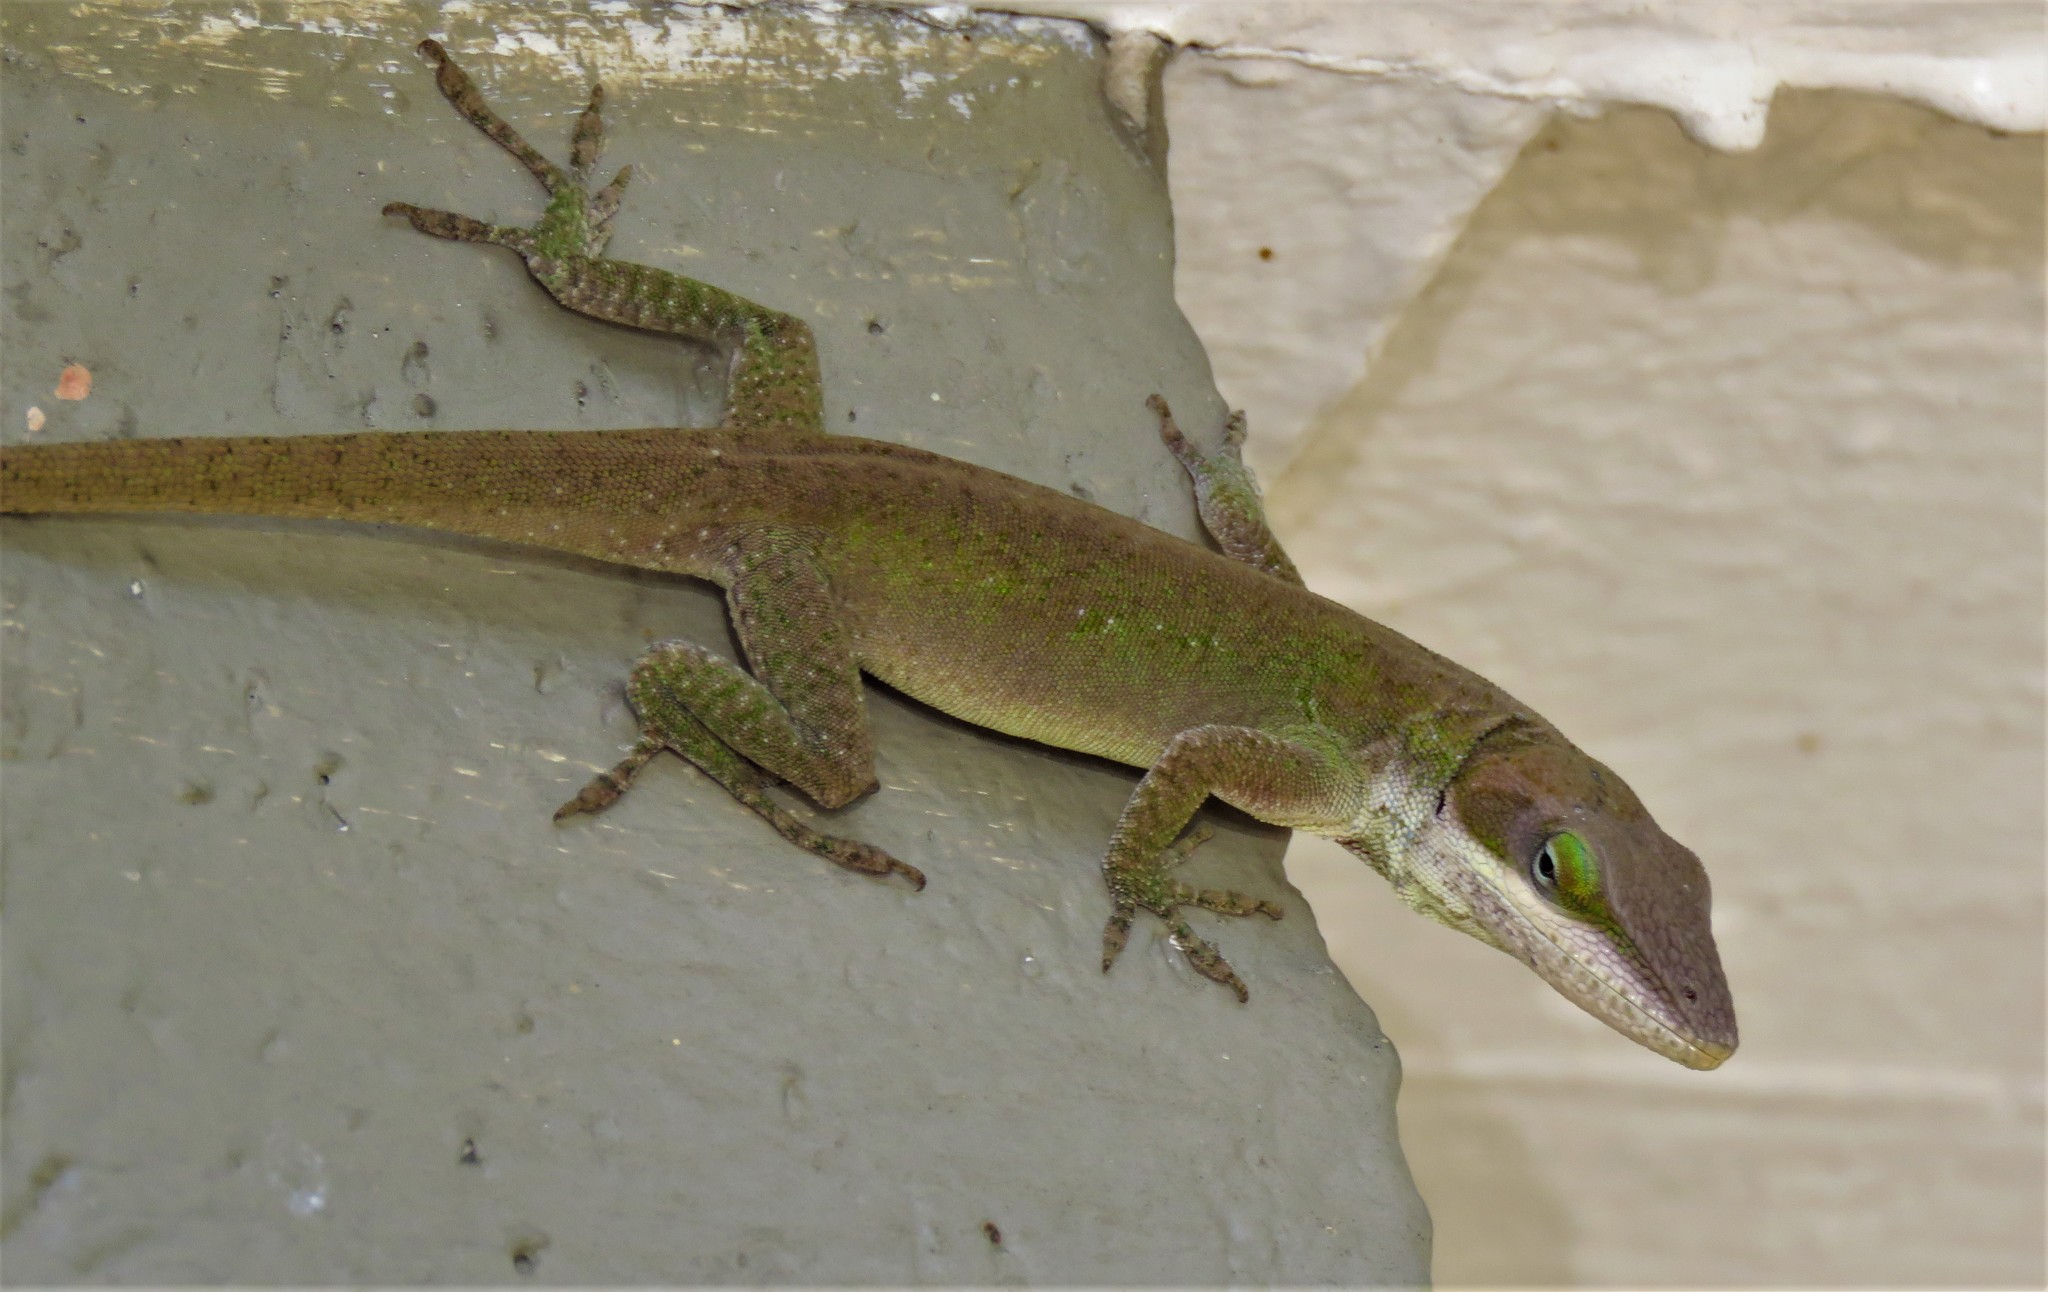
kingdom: Animalia
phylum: Chordata
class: Squamata
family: Dactyloidae
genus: Anolis
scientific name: Anolis carolinensis
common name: Green anole
